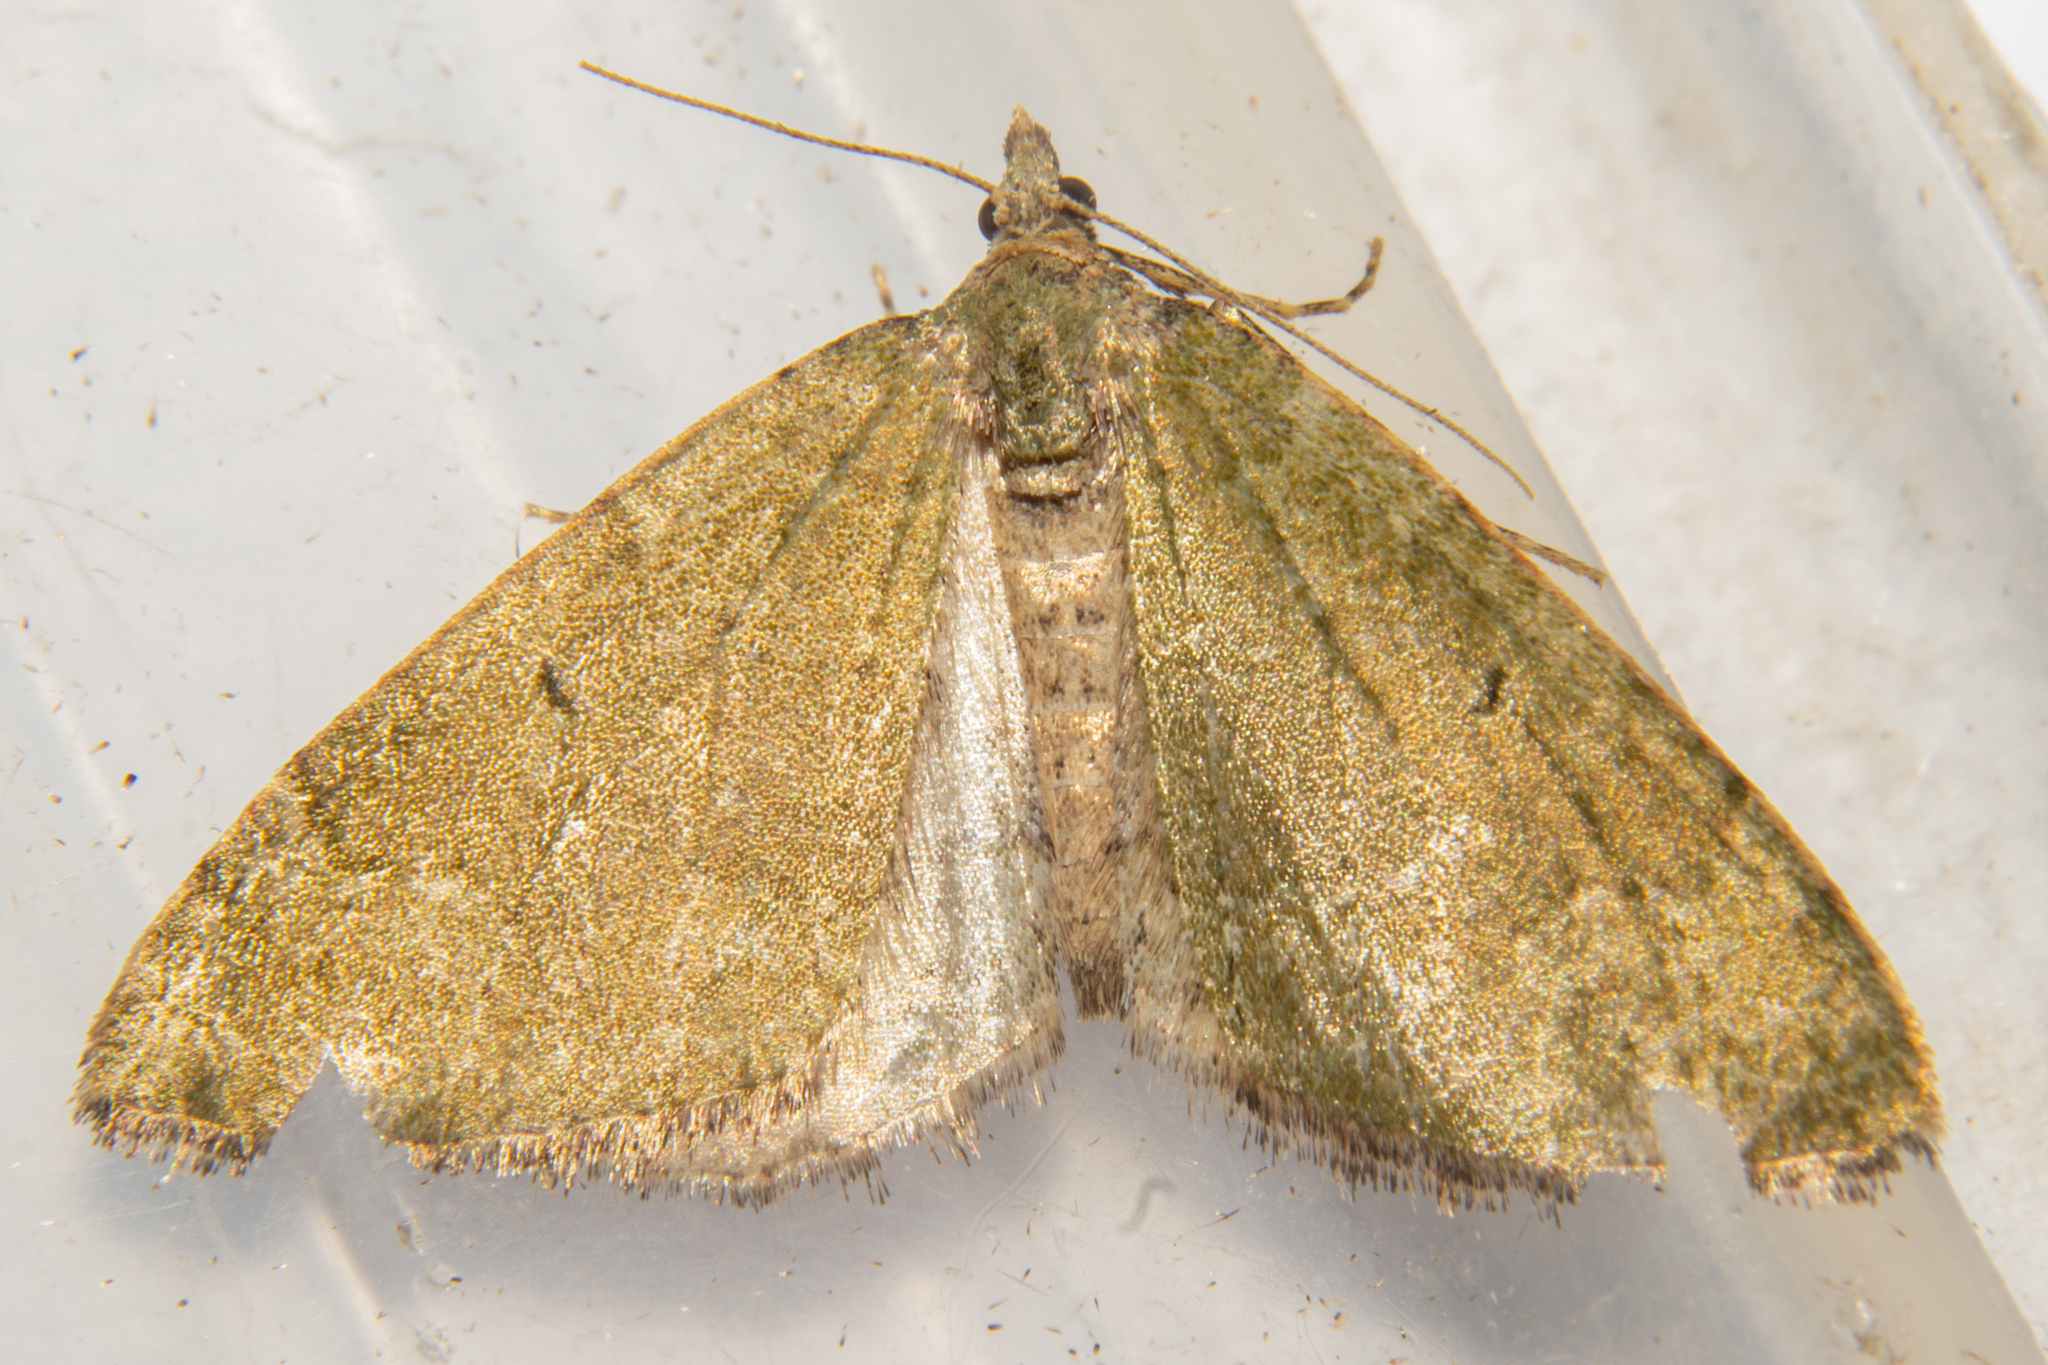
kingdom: Animalia
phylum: Arthropoda
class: Insecta
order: Lepidoptera
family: Geometridae
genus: Epyaxa
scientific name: Epyaxa rosearia
